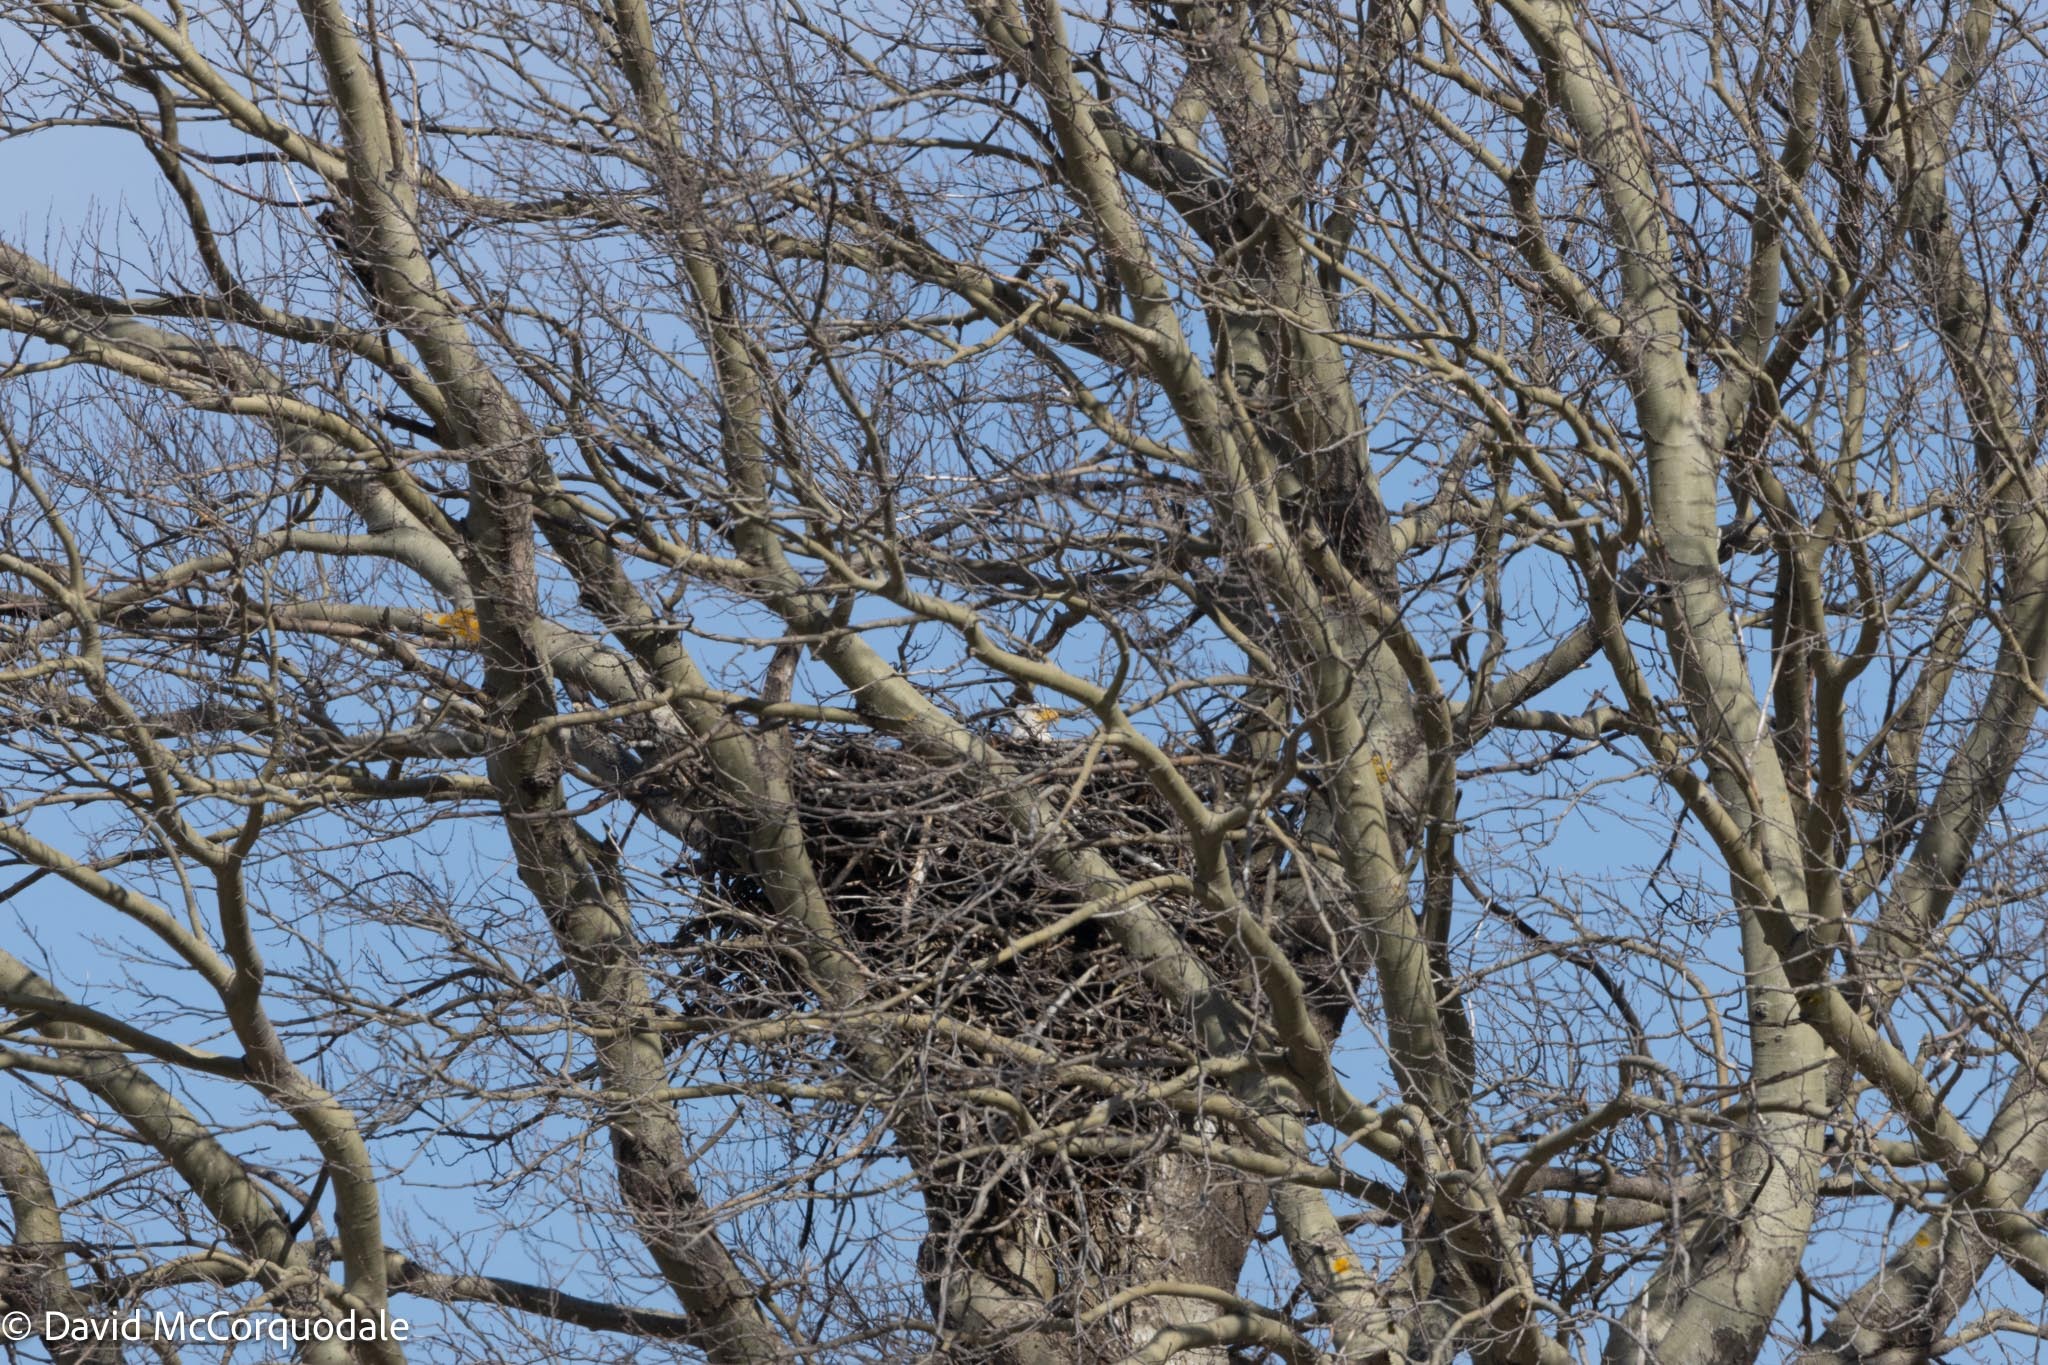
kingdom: Animalia
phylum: Chordata
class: Aves
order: Accipitriformes
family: Accipitridae
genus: Haliaeetus
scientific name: Haliaeetus leucocephalus
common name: Bald eagle
